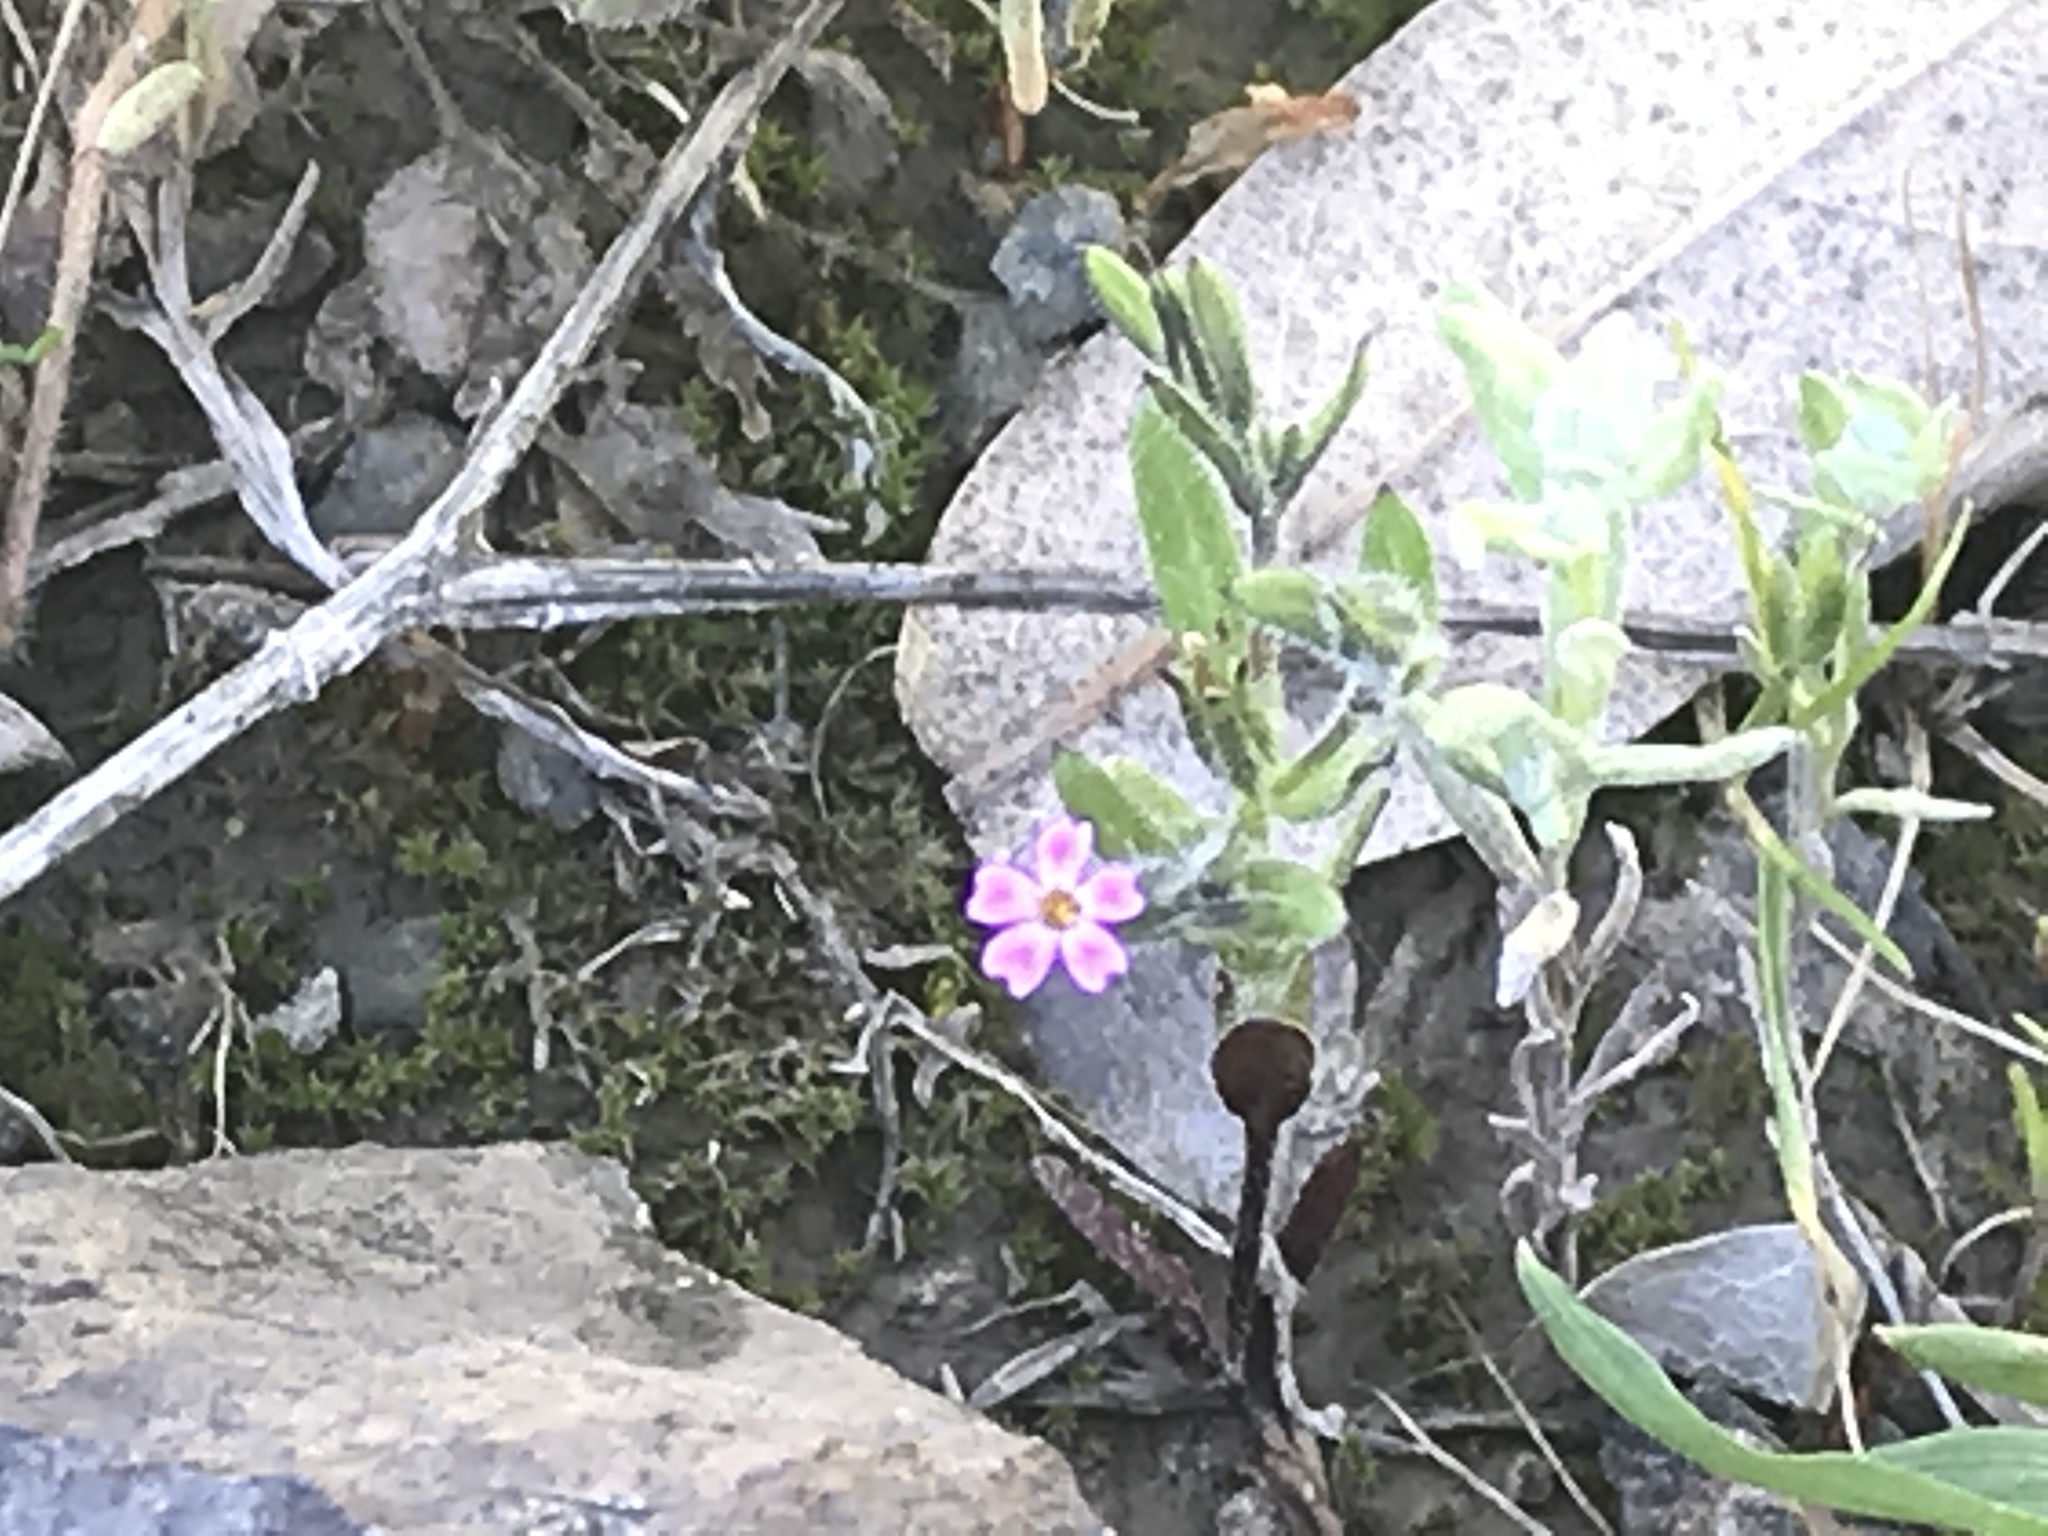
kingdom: Plantae
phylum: Tracheophyta
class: Magnoliopsida
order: Ericales
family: Polemoniaceae
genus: Phlox
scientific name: Phlox gracilis
